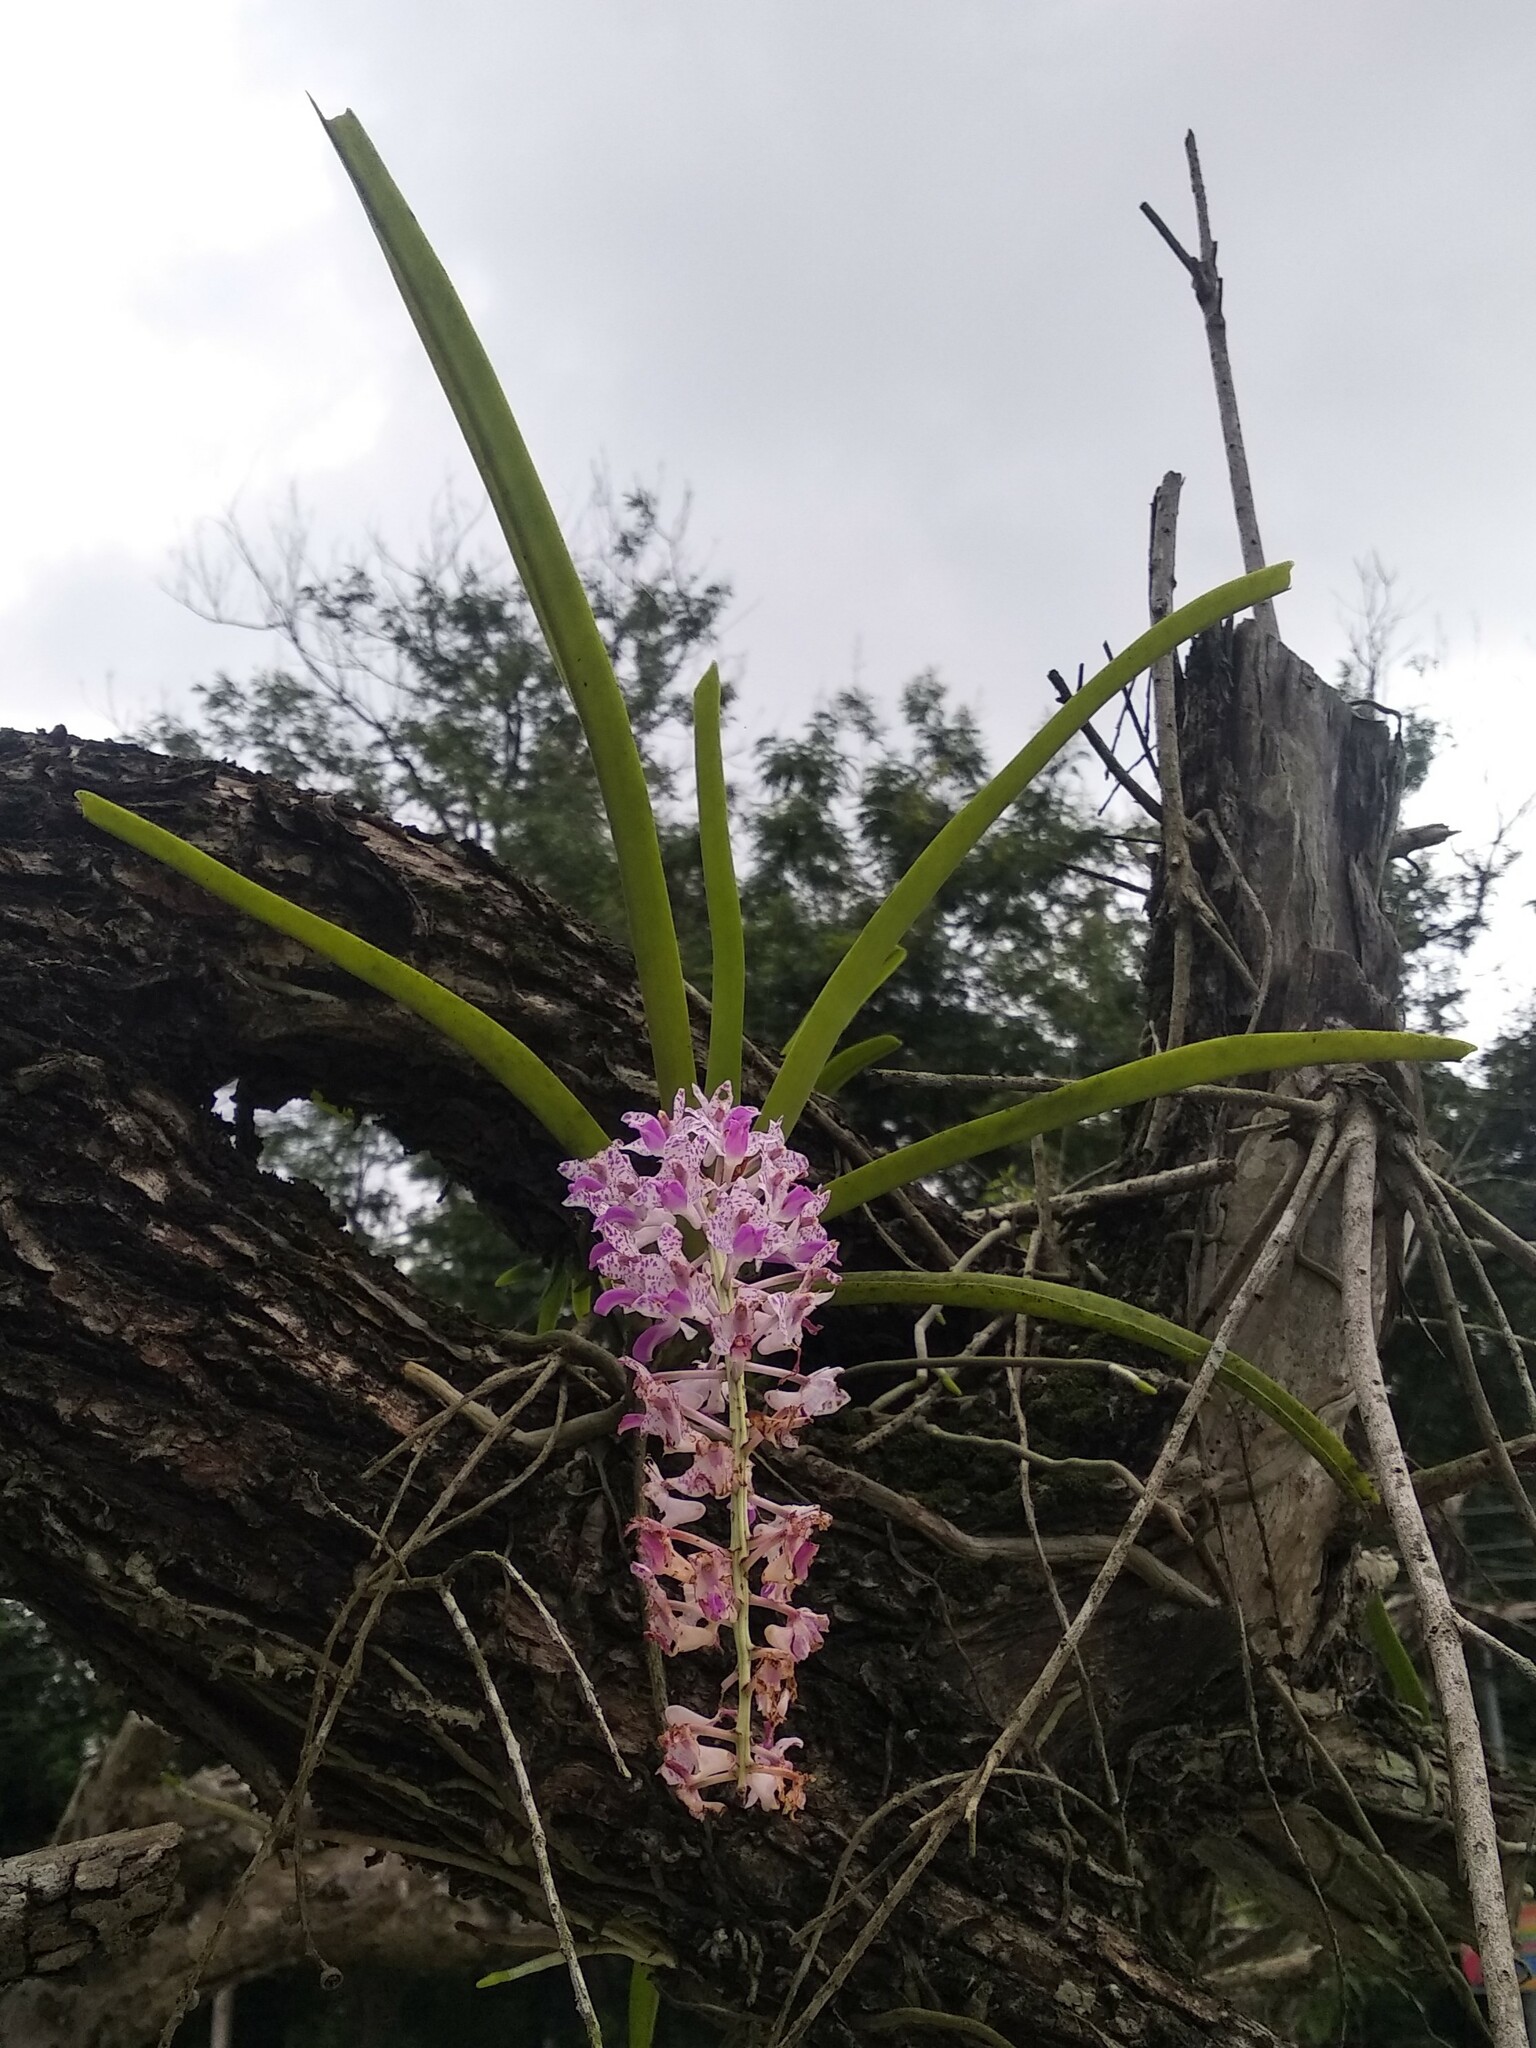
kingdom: Plantae
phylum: Tracheophyta
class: Liliopsida
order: Asparagales
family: Orchidaceae
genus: Rhynchostylis
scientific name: Rhynchostylis retusa
